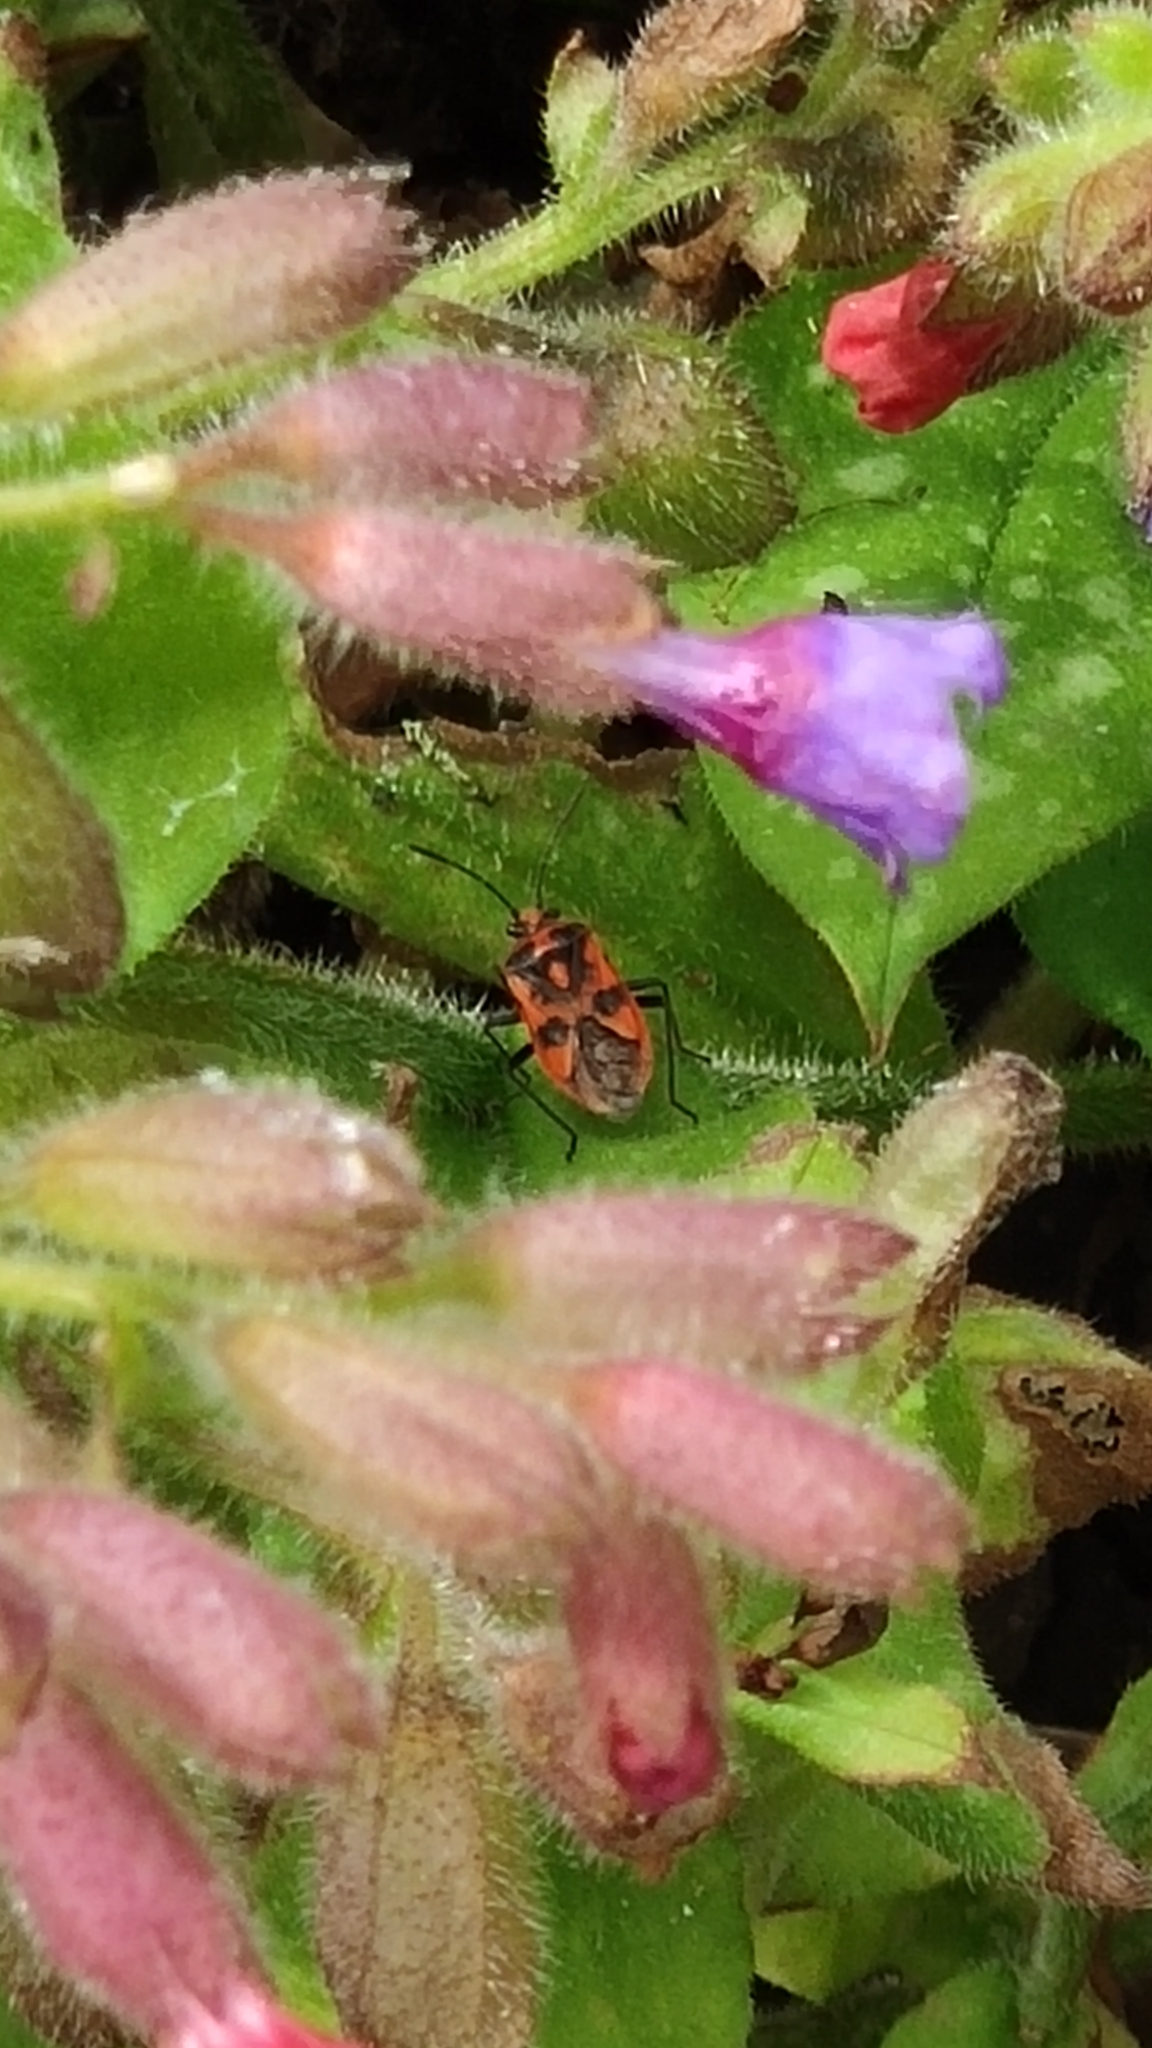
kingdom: Animalia
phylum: Arthropoda
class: Insecta
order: Hemiptera
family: Rhopalidae
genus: Corizus
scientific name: Corizus hyoscyami
